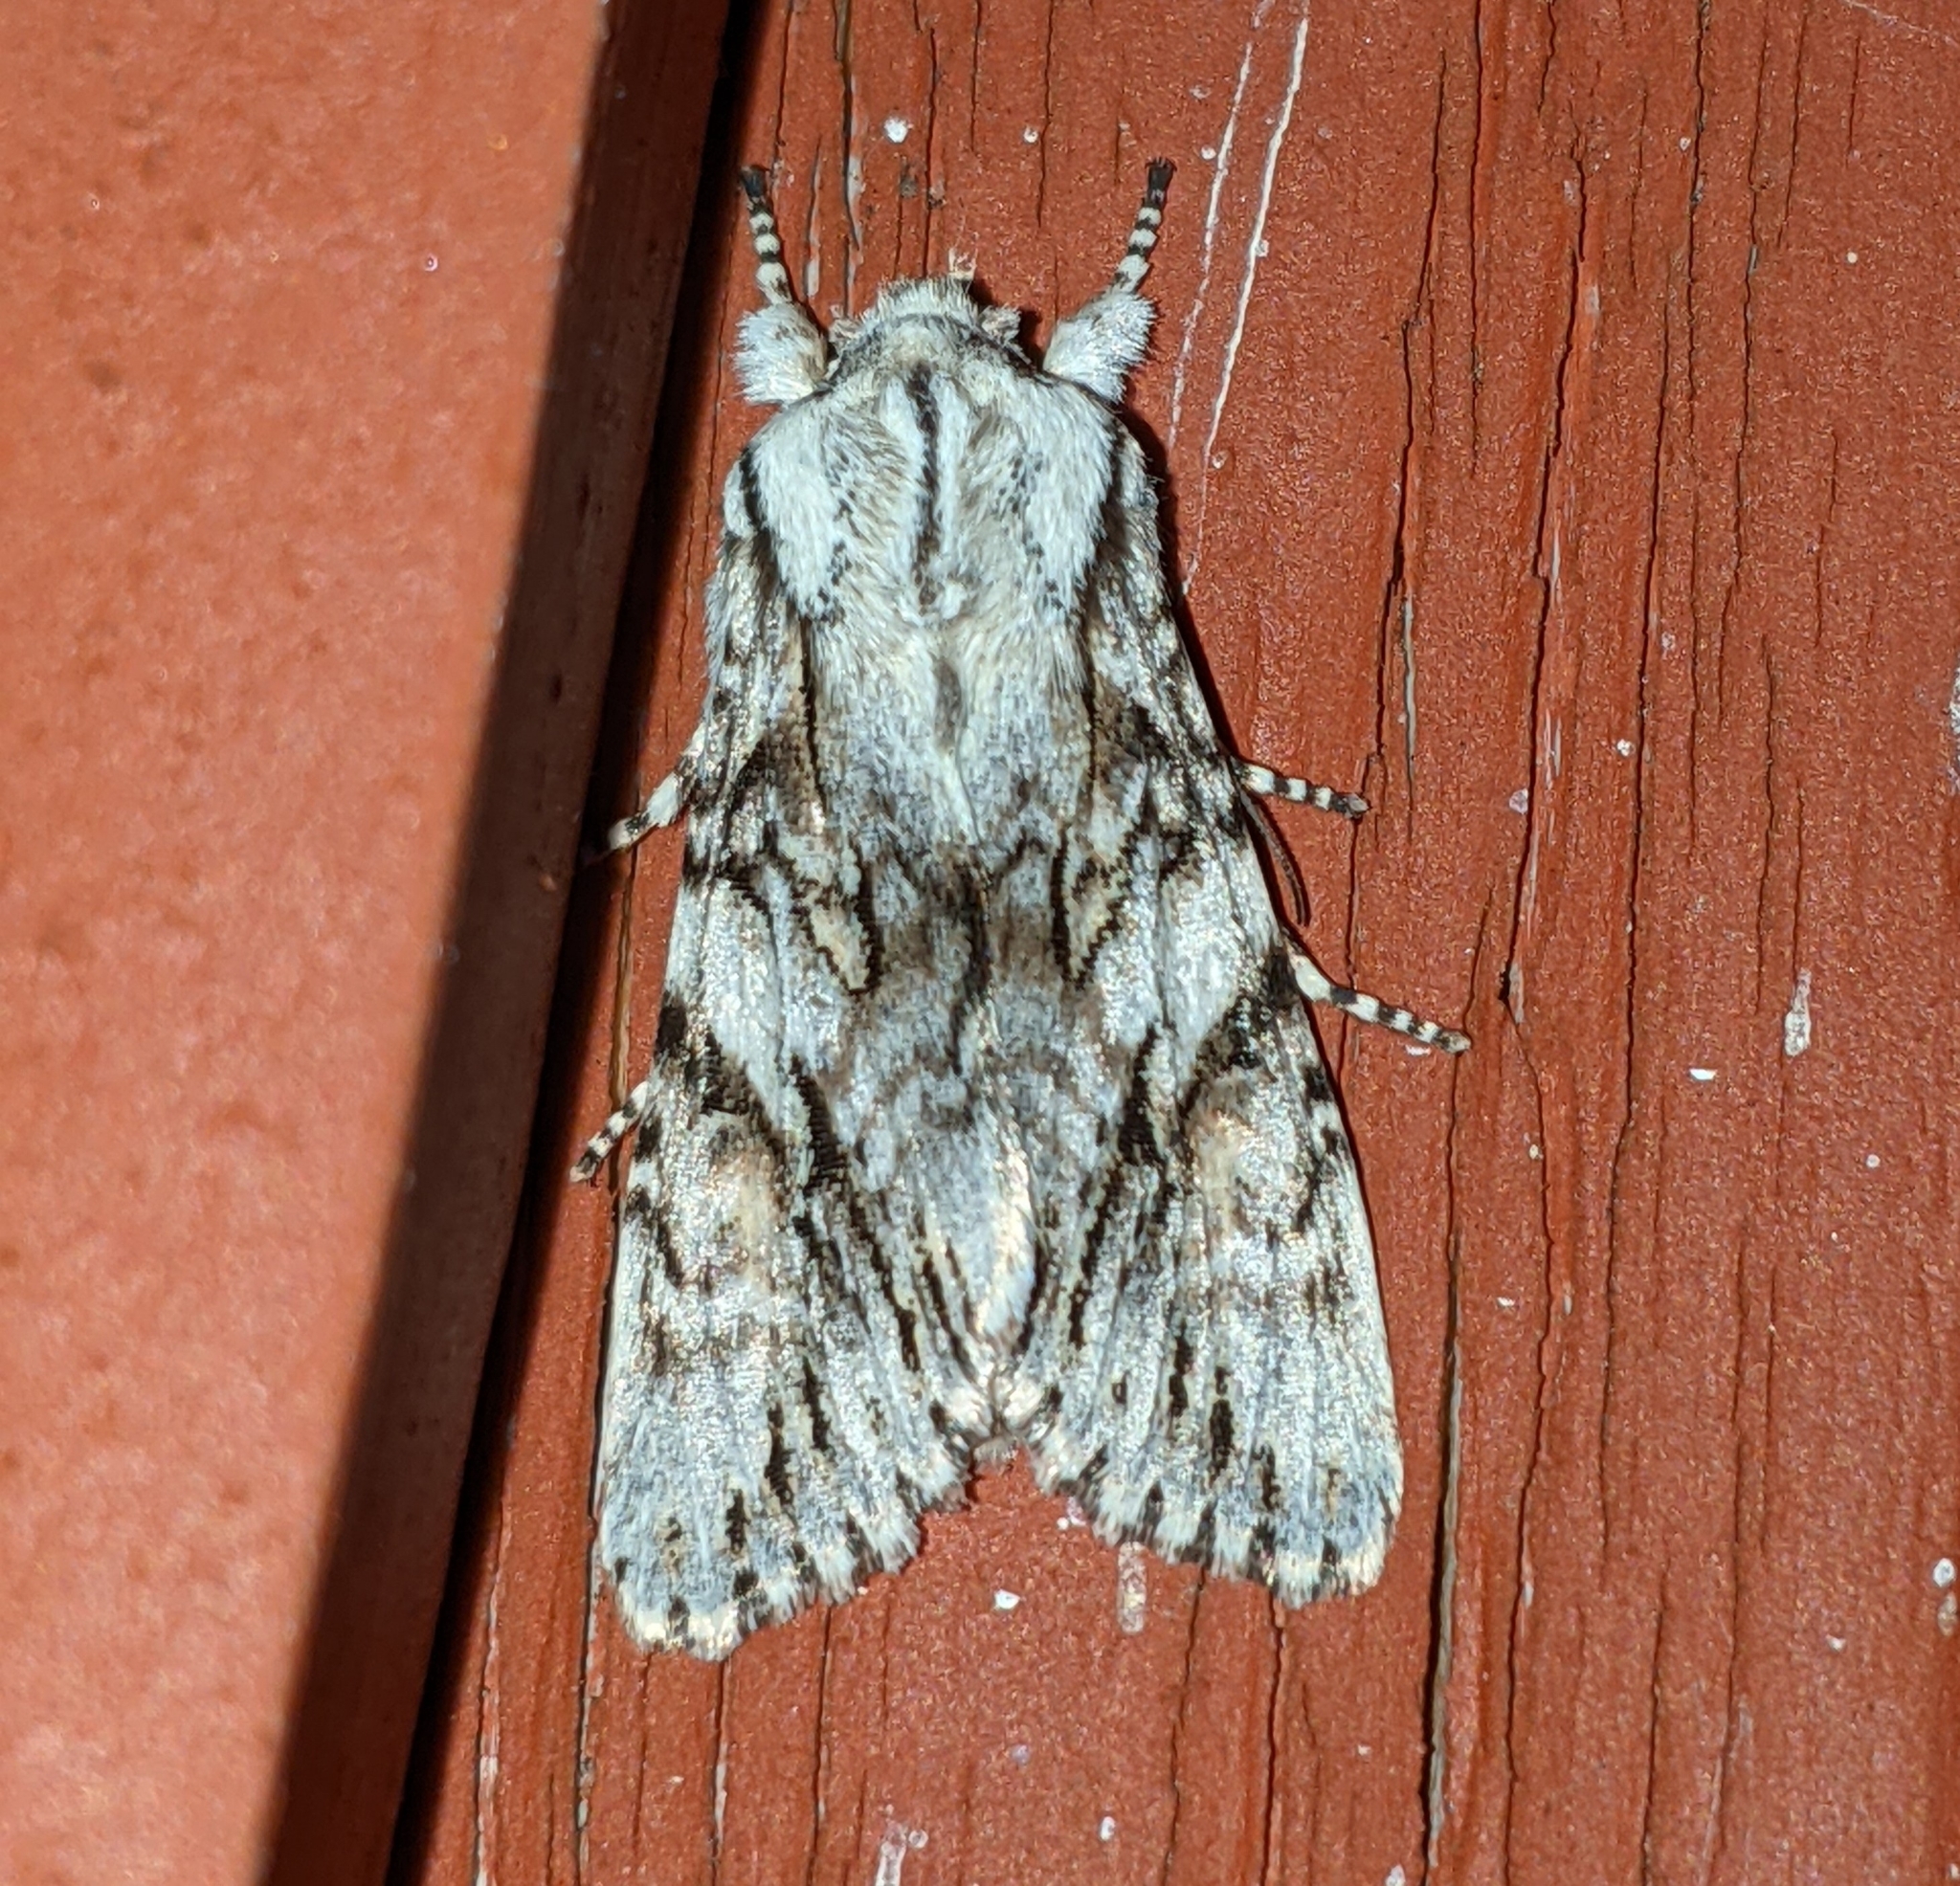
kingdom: Animalia
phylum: Arthropoda
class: Insecta
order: Lepidoptera
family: Noctuidae
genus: Egira
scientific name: Egira crucialis
